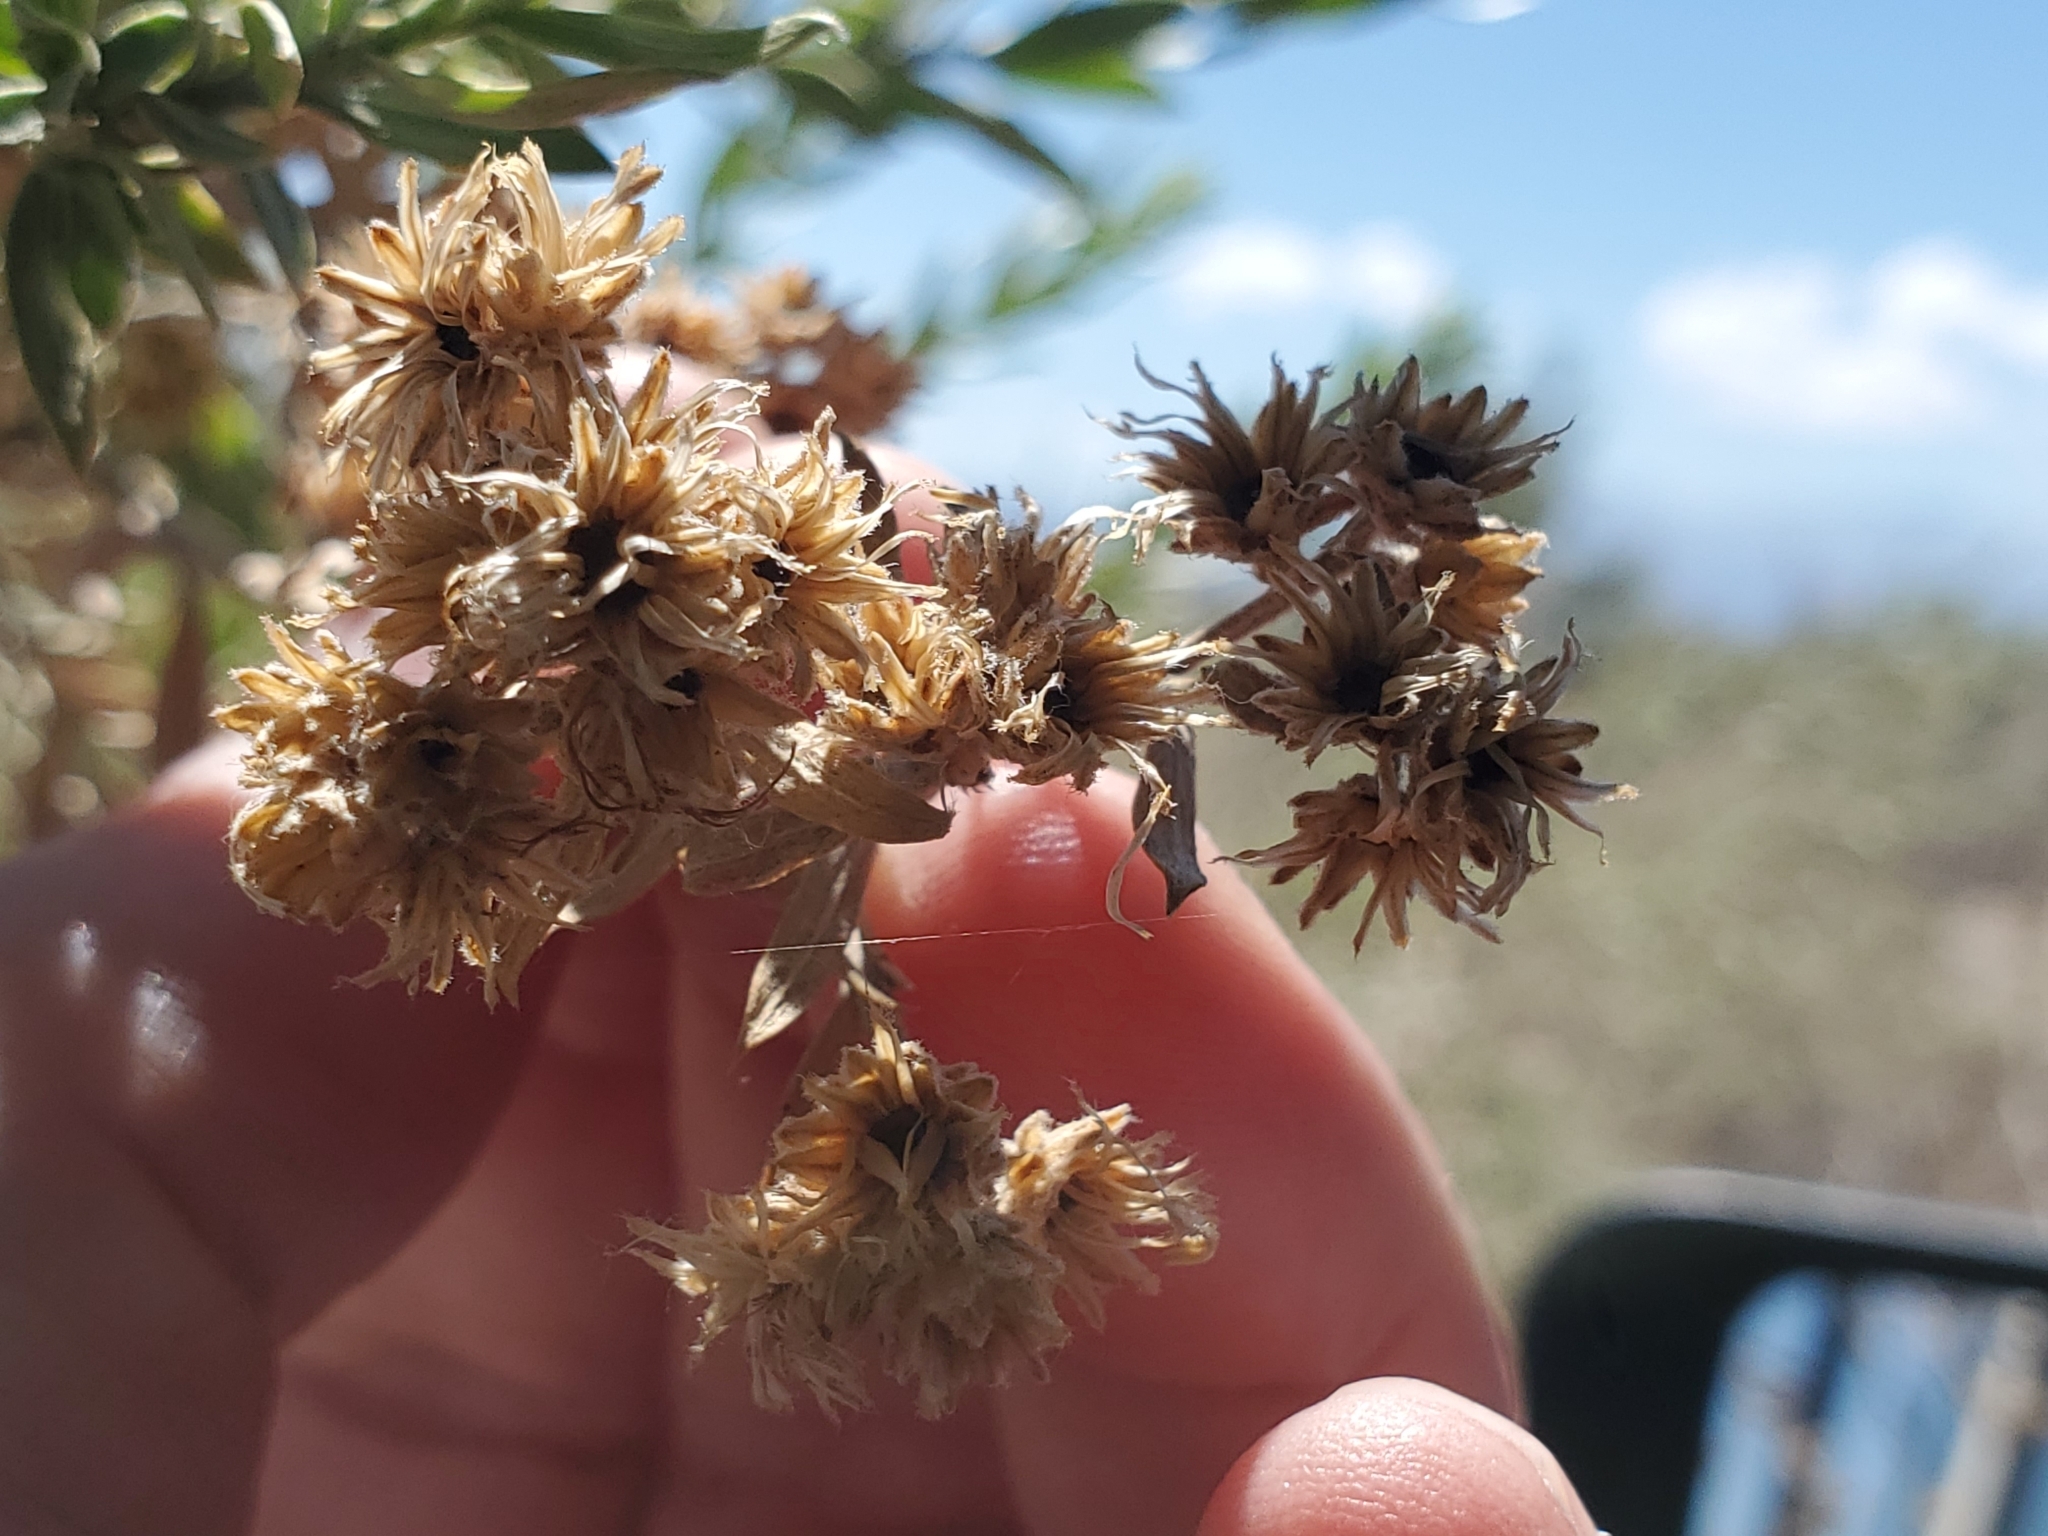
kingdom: Plantae
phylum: Tracheophyta
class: Magnoliopsida
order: Asterales
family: Asteraceae
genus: Pluchea
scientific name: Pluchea sericea
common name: Arrow-weed
